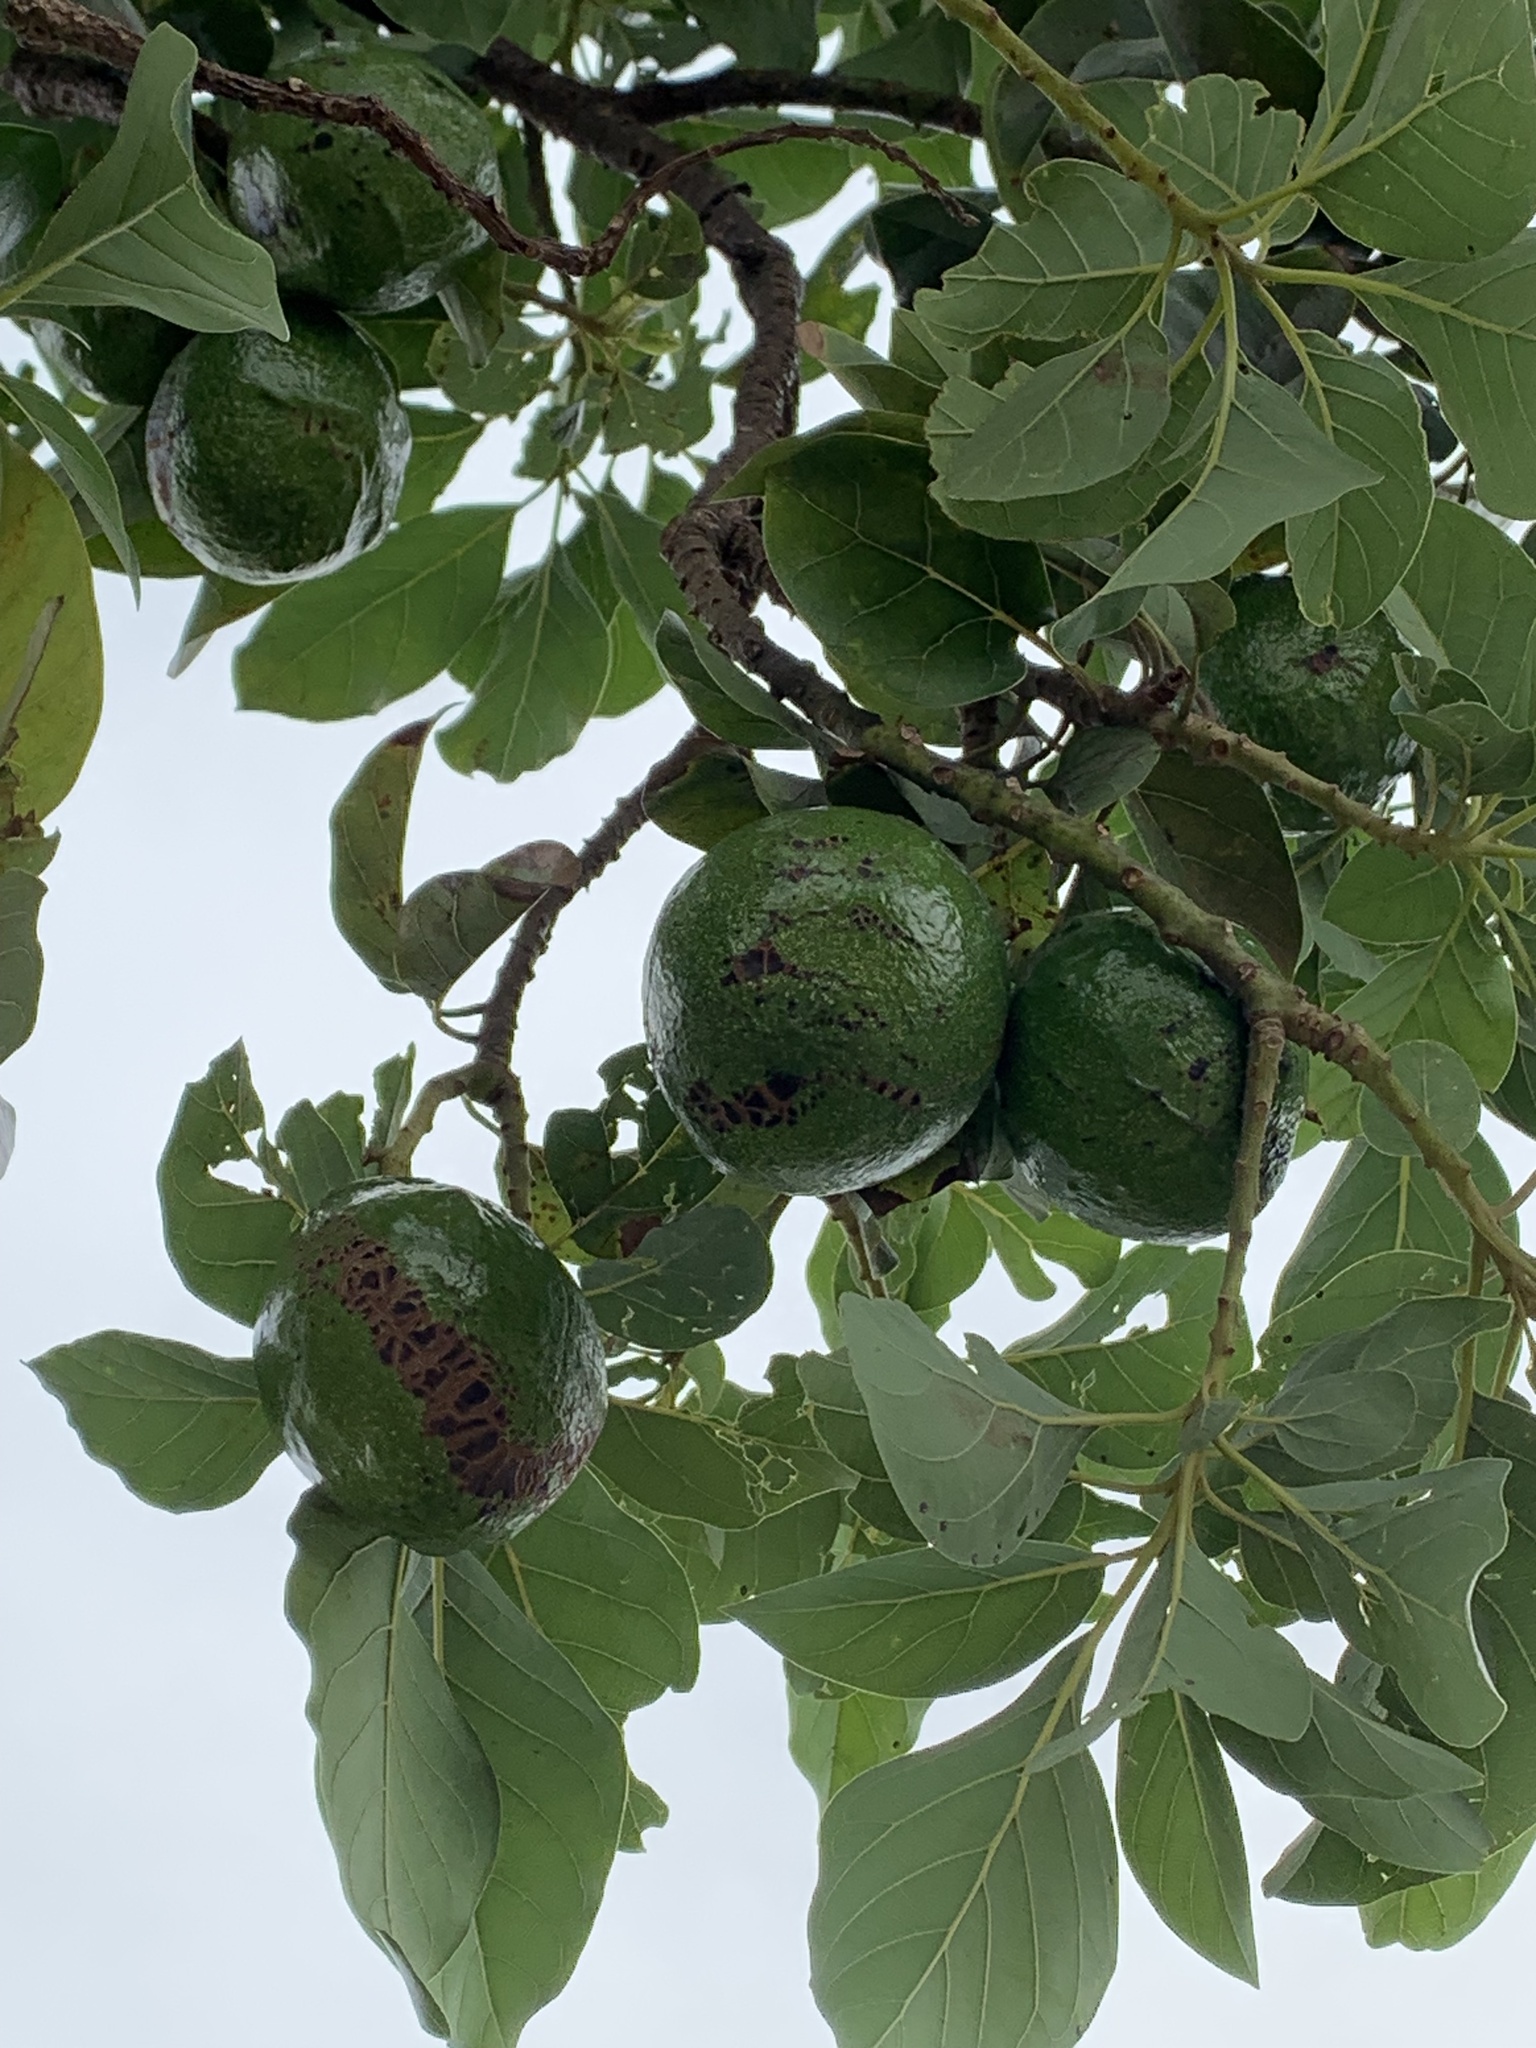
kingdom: Plantae
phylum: Tracheophyta
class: Magnoliopsida
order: Laurales
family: Lauraceae
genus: Persea
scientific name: Persea americana
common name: Avocado
